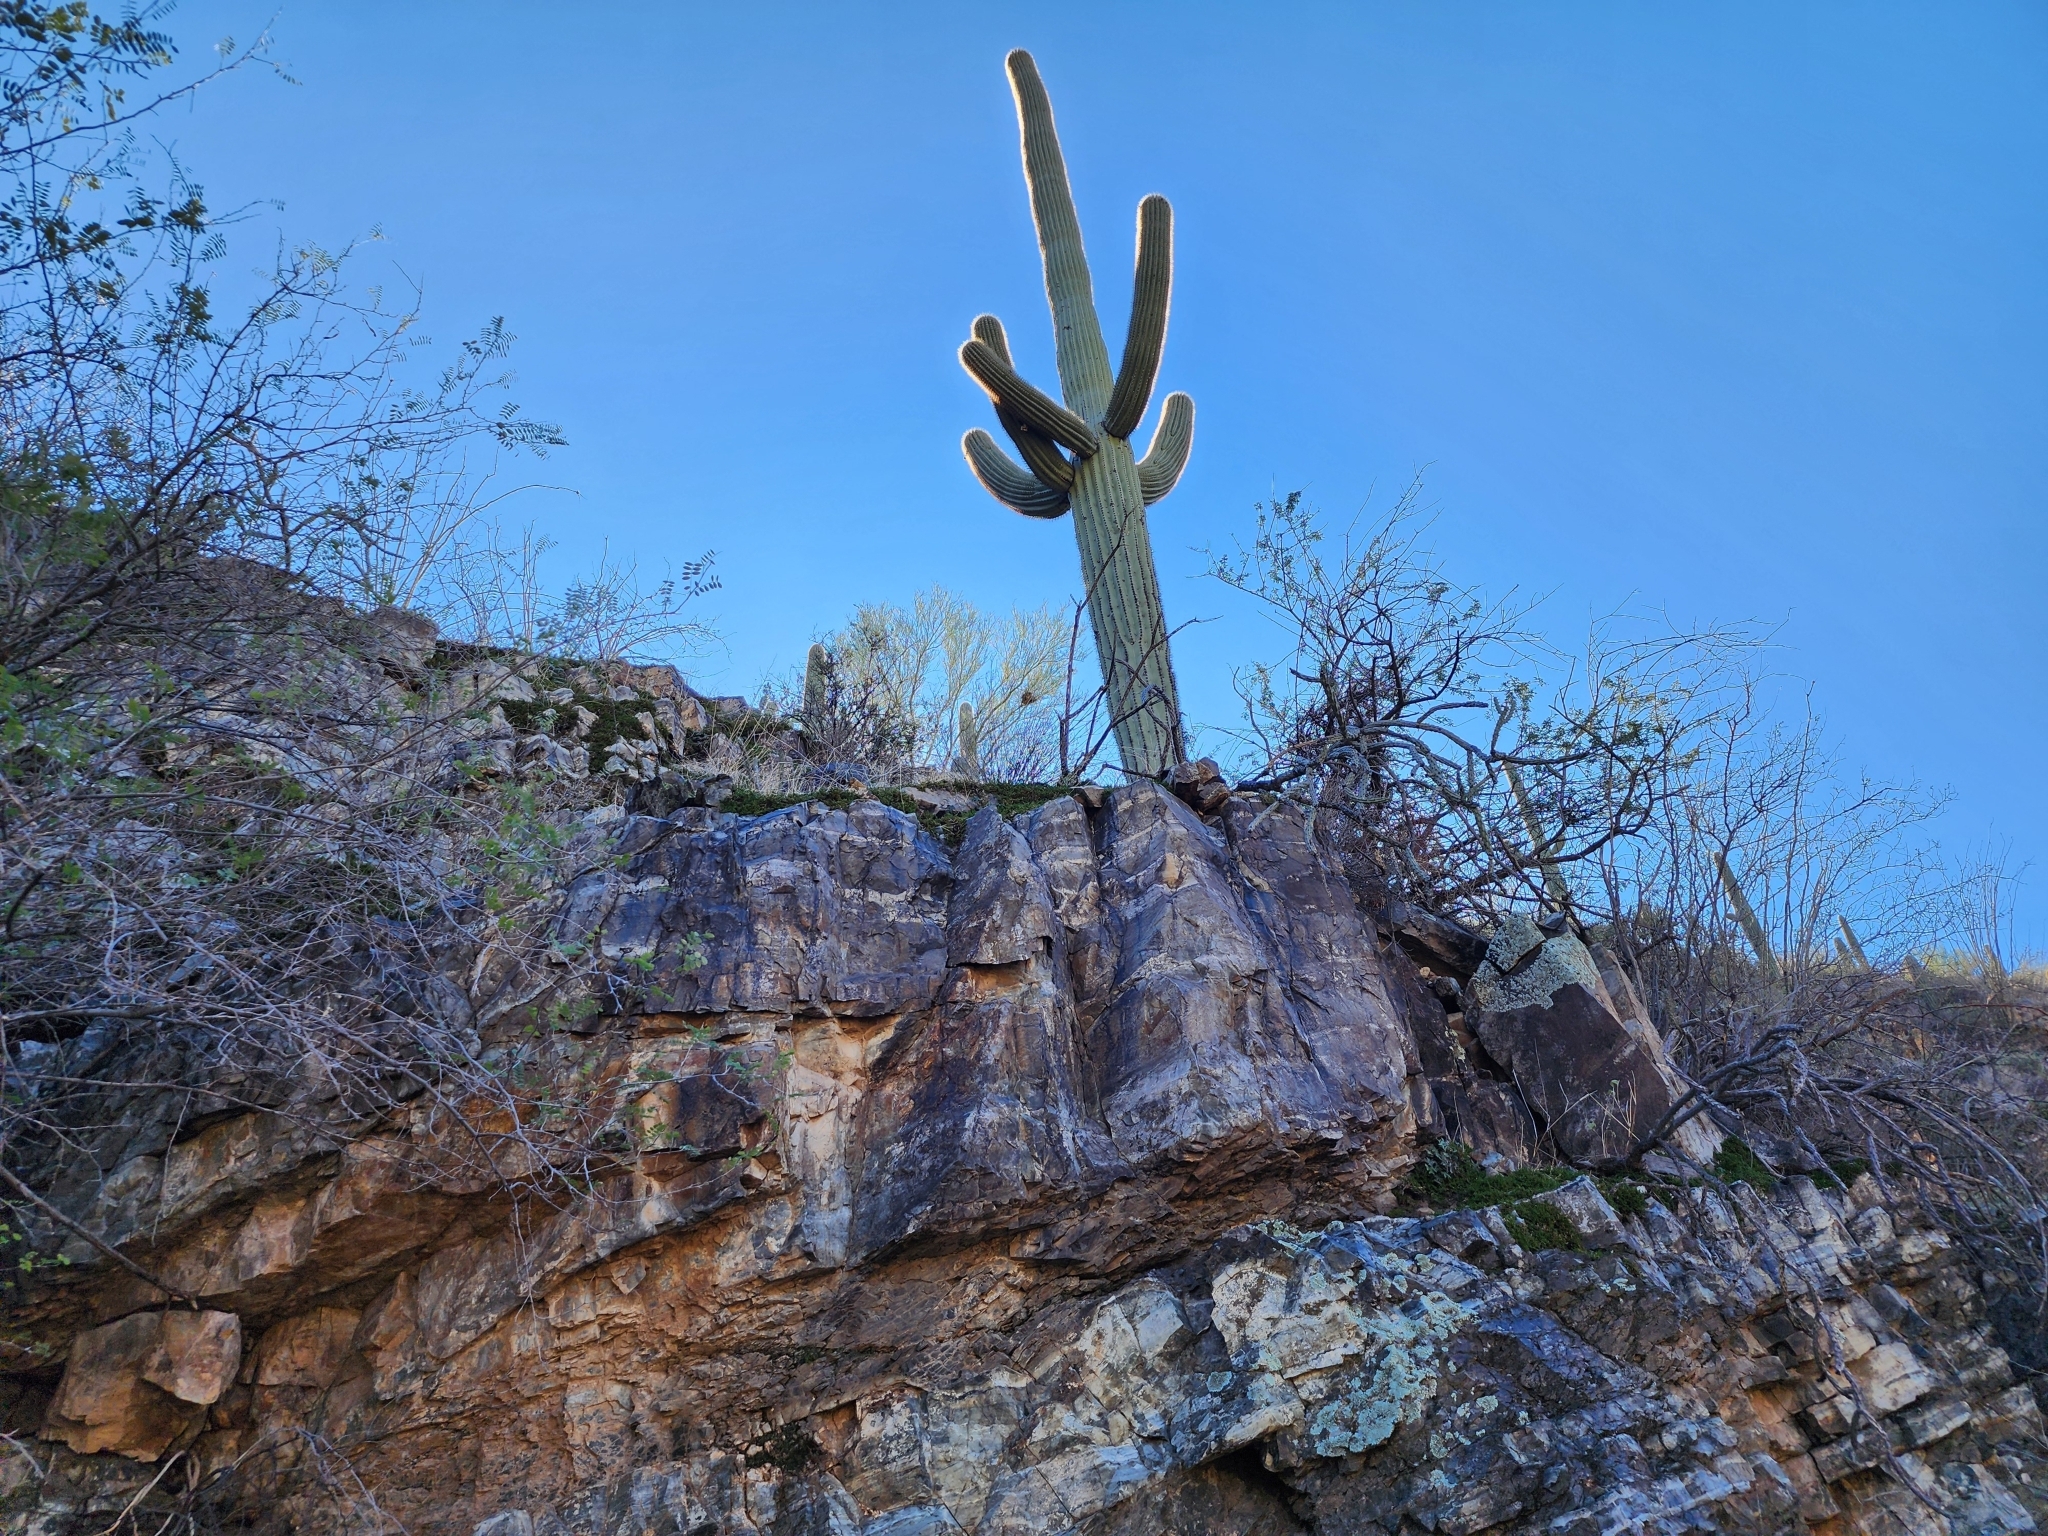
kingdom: Plantae
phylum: Tracheophyta
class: Magnoliopsida
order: Caryophyllales
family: Cactaceae
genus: Carnegiea
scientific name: Carnegiea gigantea
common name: Saguaro
